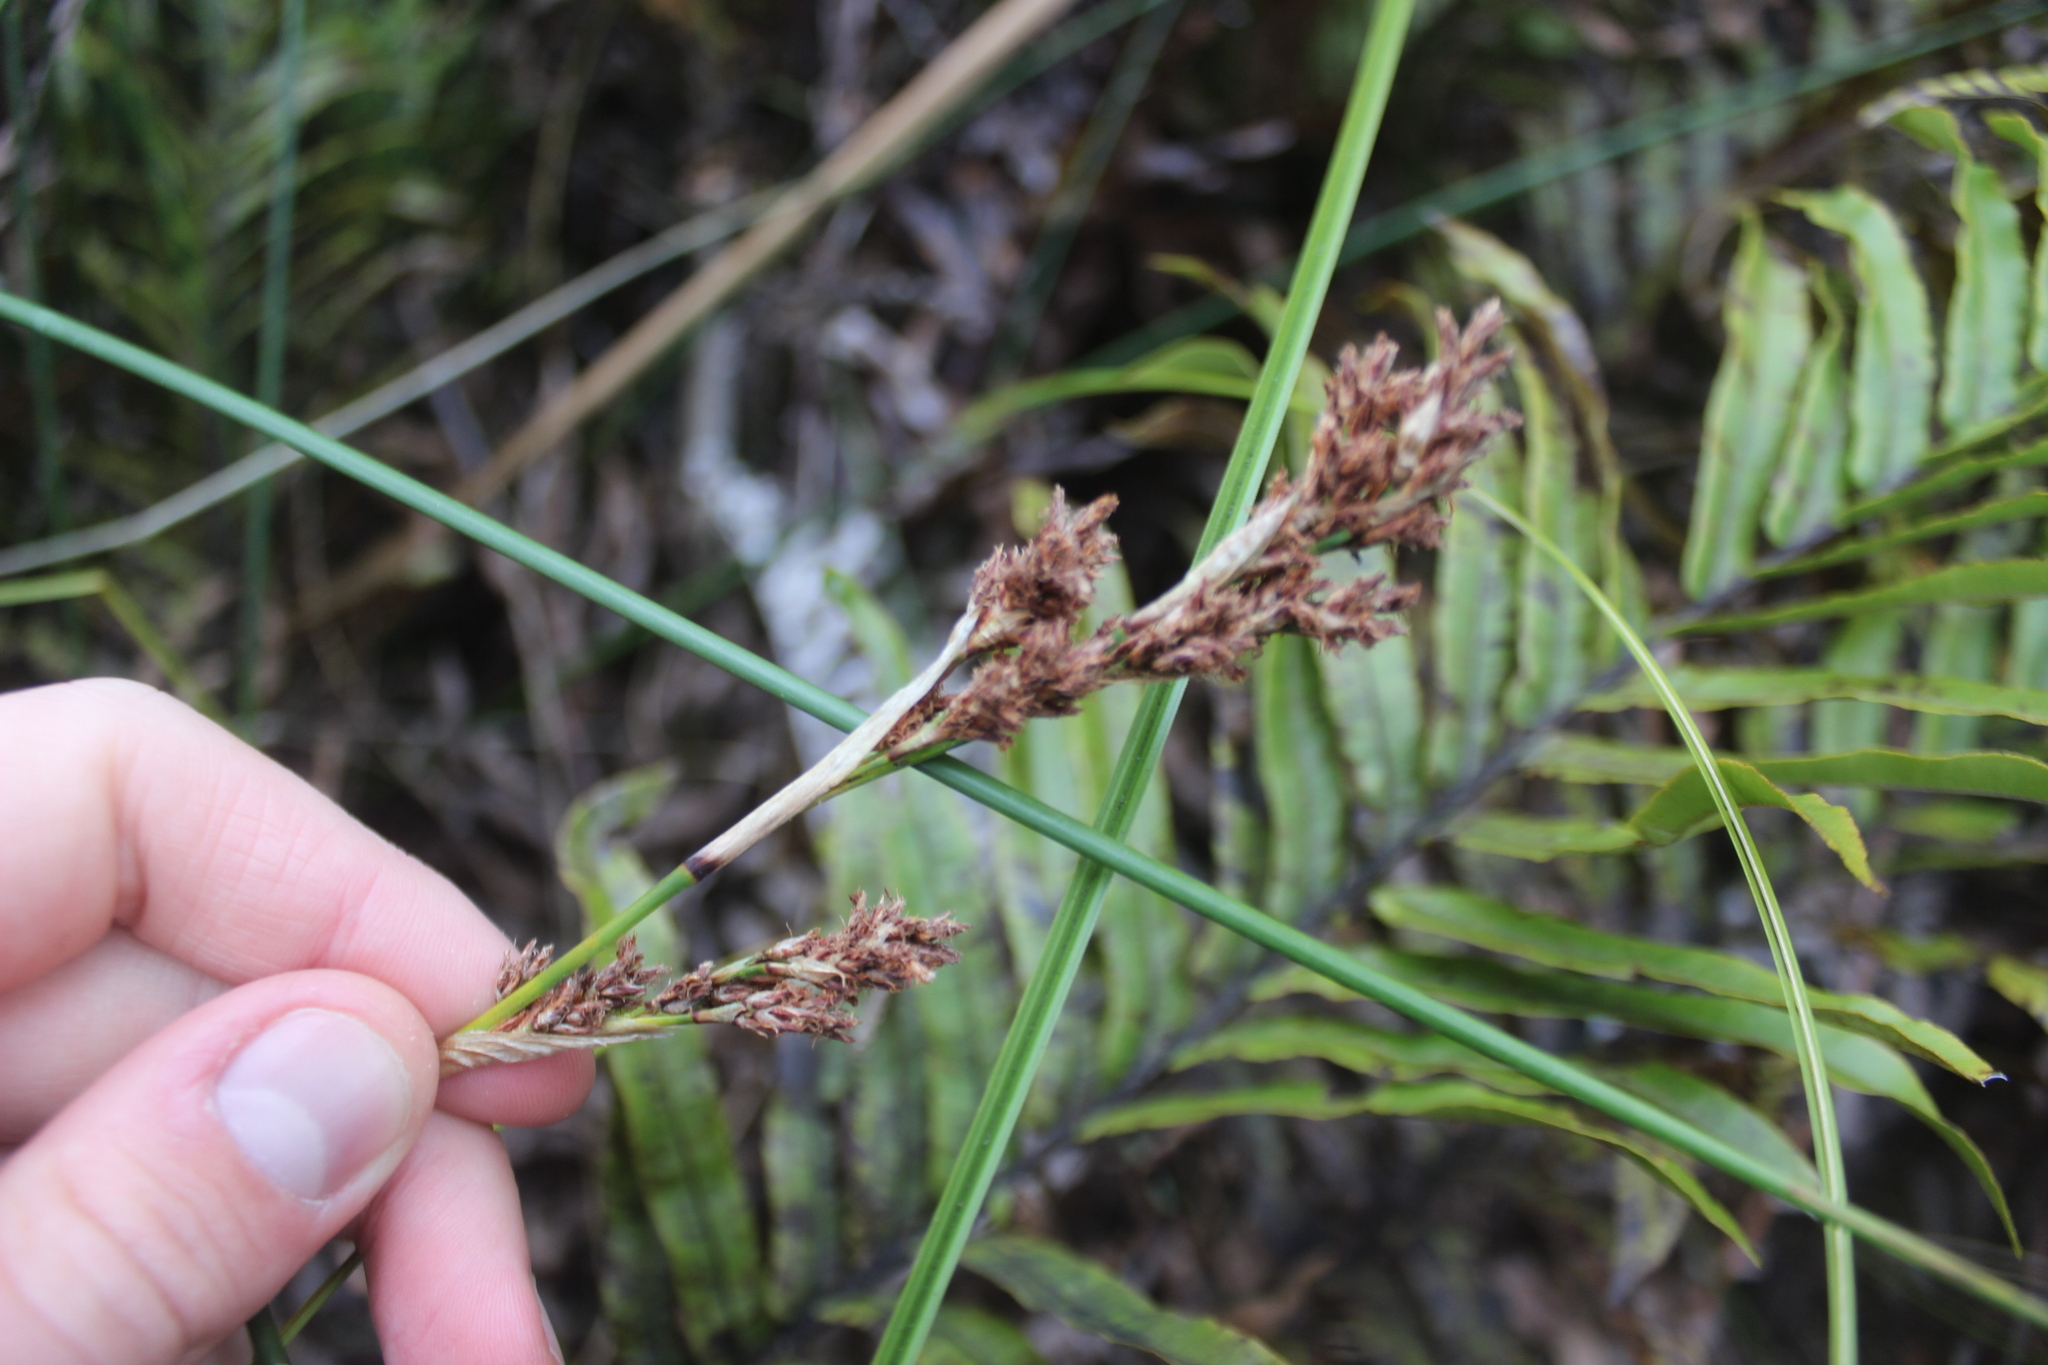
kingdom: Plantae
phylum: Tracheophyta
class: Liliopsida
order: Poales
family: Cyperaceae
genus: Machaerina
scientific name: Machaerina rubiginosa
